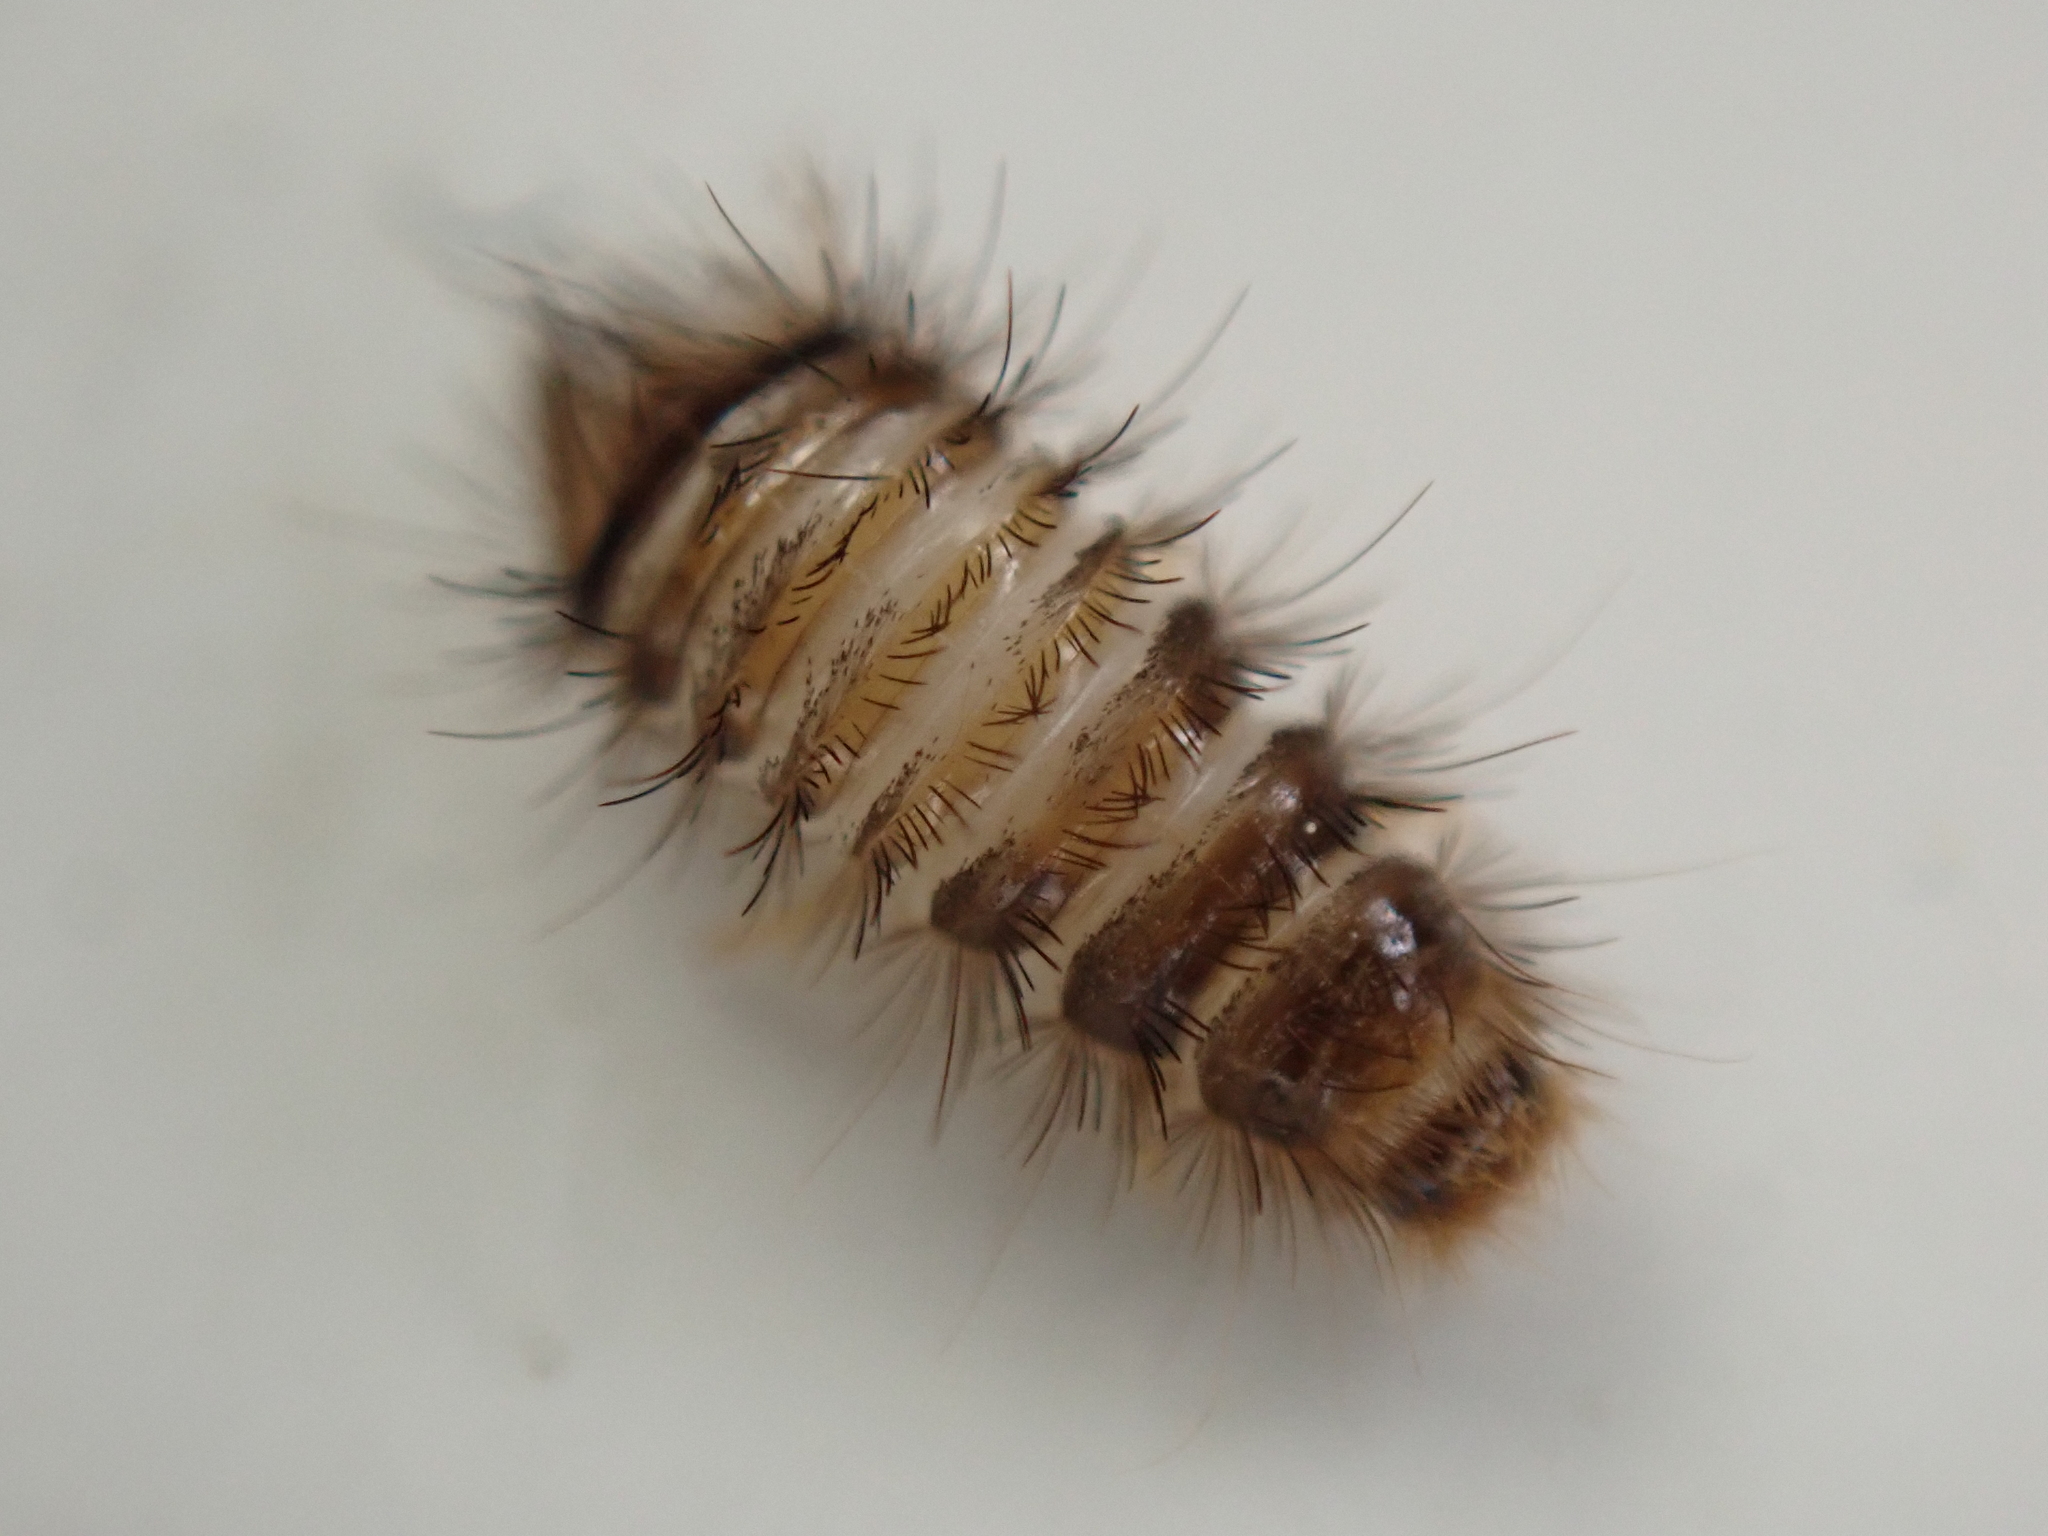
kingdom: Animalia
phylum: Arthropoda
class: Insecta
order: Coleoptera
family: Dermestidae
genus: Anthrenus
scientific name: Anthrenus verbasci
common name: Varied carpet beetle
